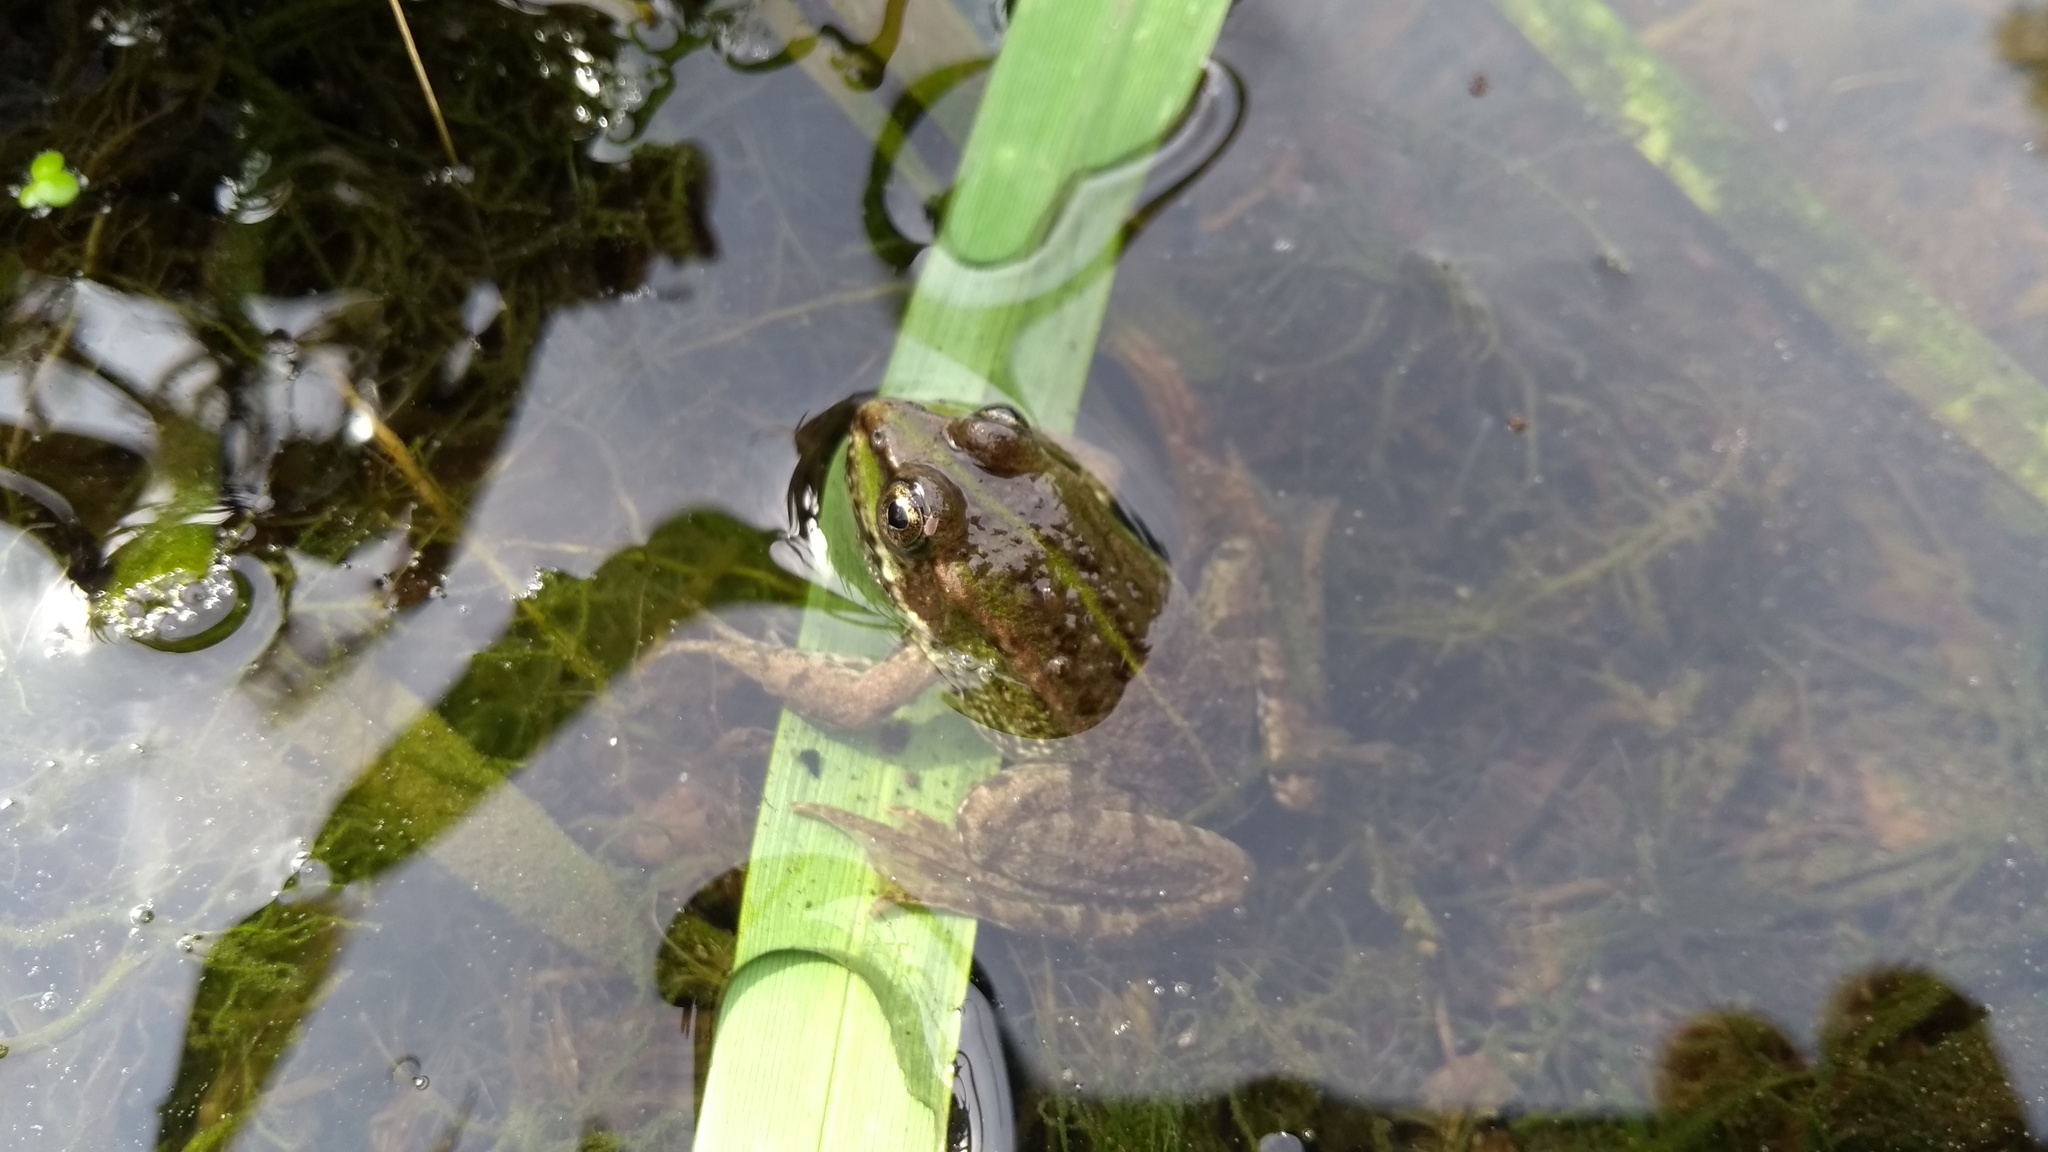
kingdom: Animalia
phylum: Chordata
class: Amphibia
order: Anura
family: Ranidae
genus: Pelophylax
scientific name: Pelophylax
